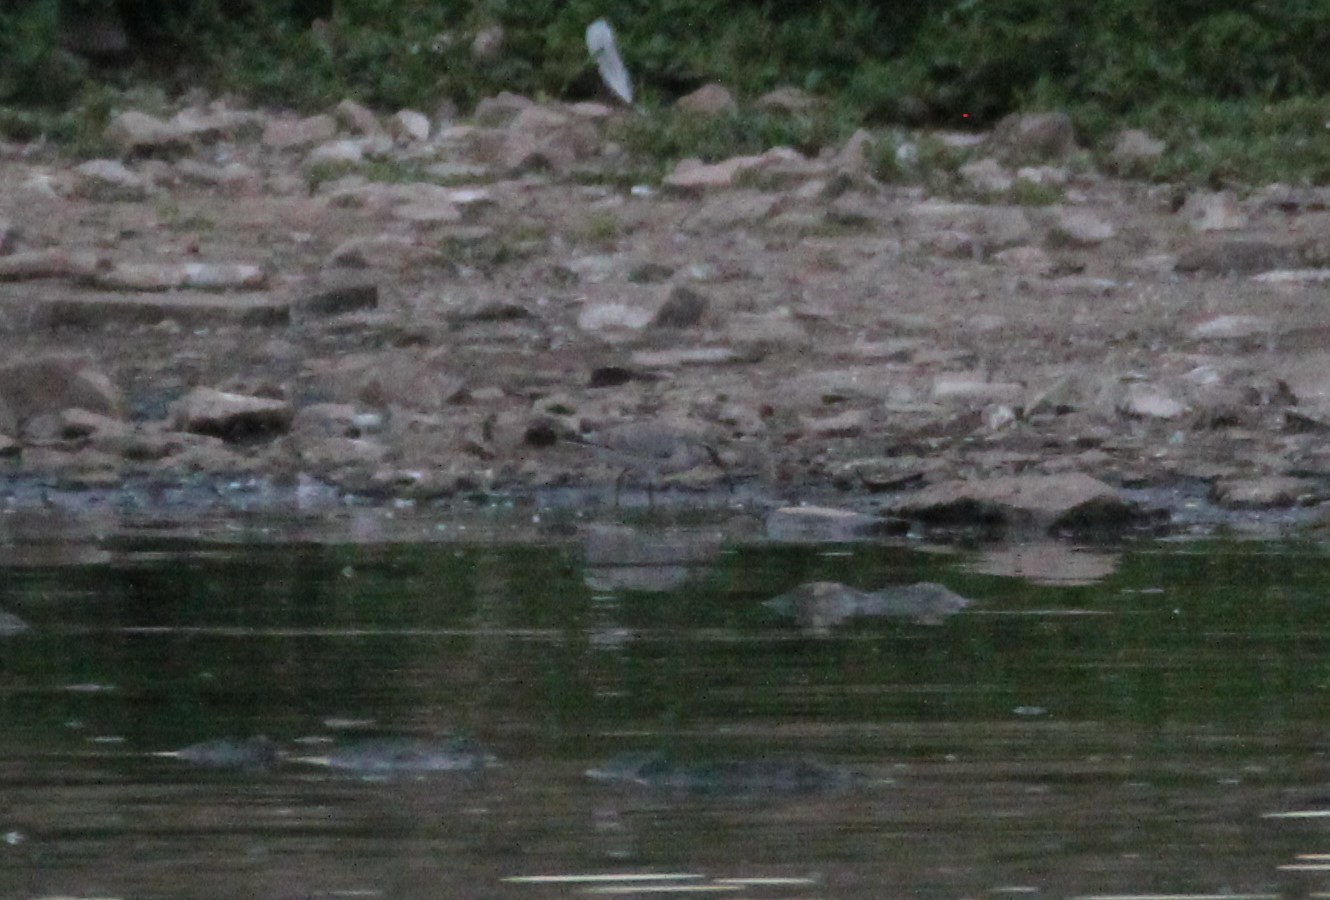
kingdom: Animalia
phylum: Chordata
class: Aves
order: Charadriiformes
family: Scolopacidae
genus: Calidris
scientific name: Calidris canutus
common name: Red knot
